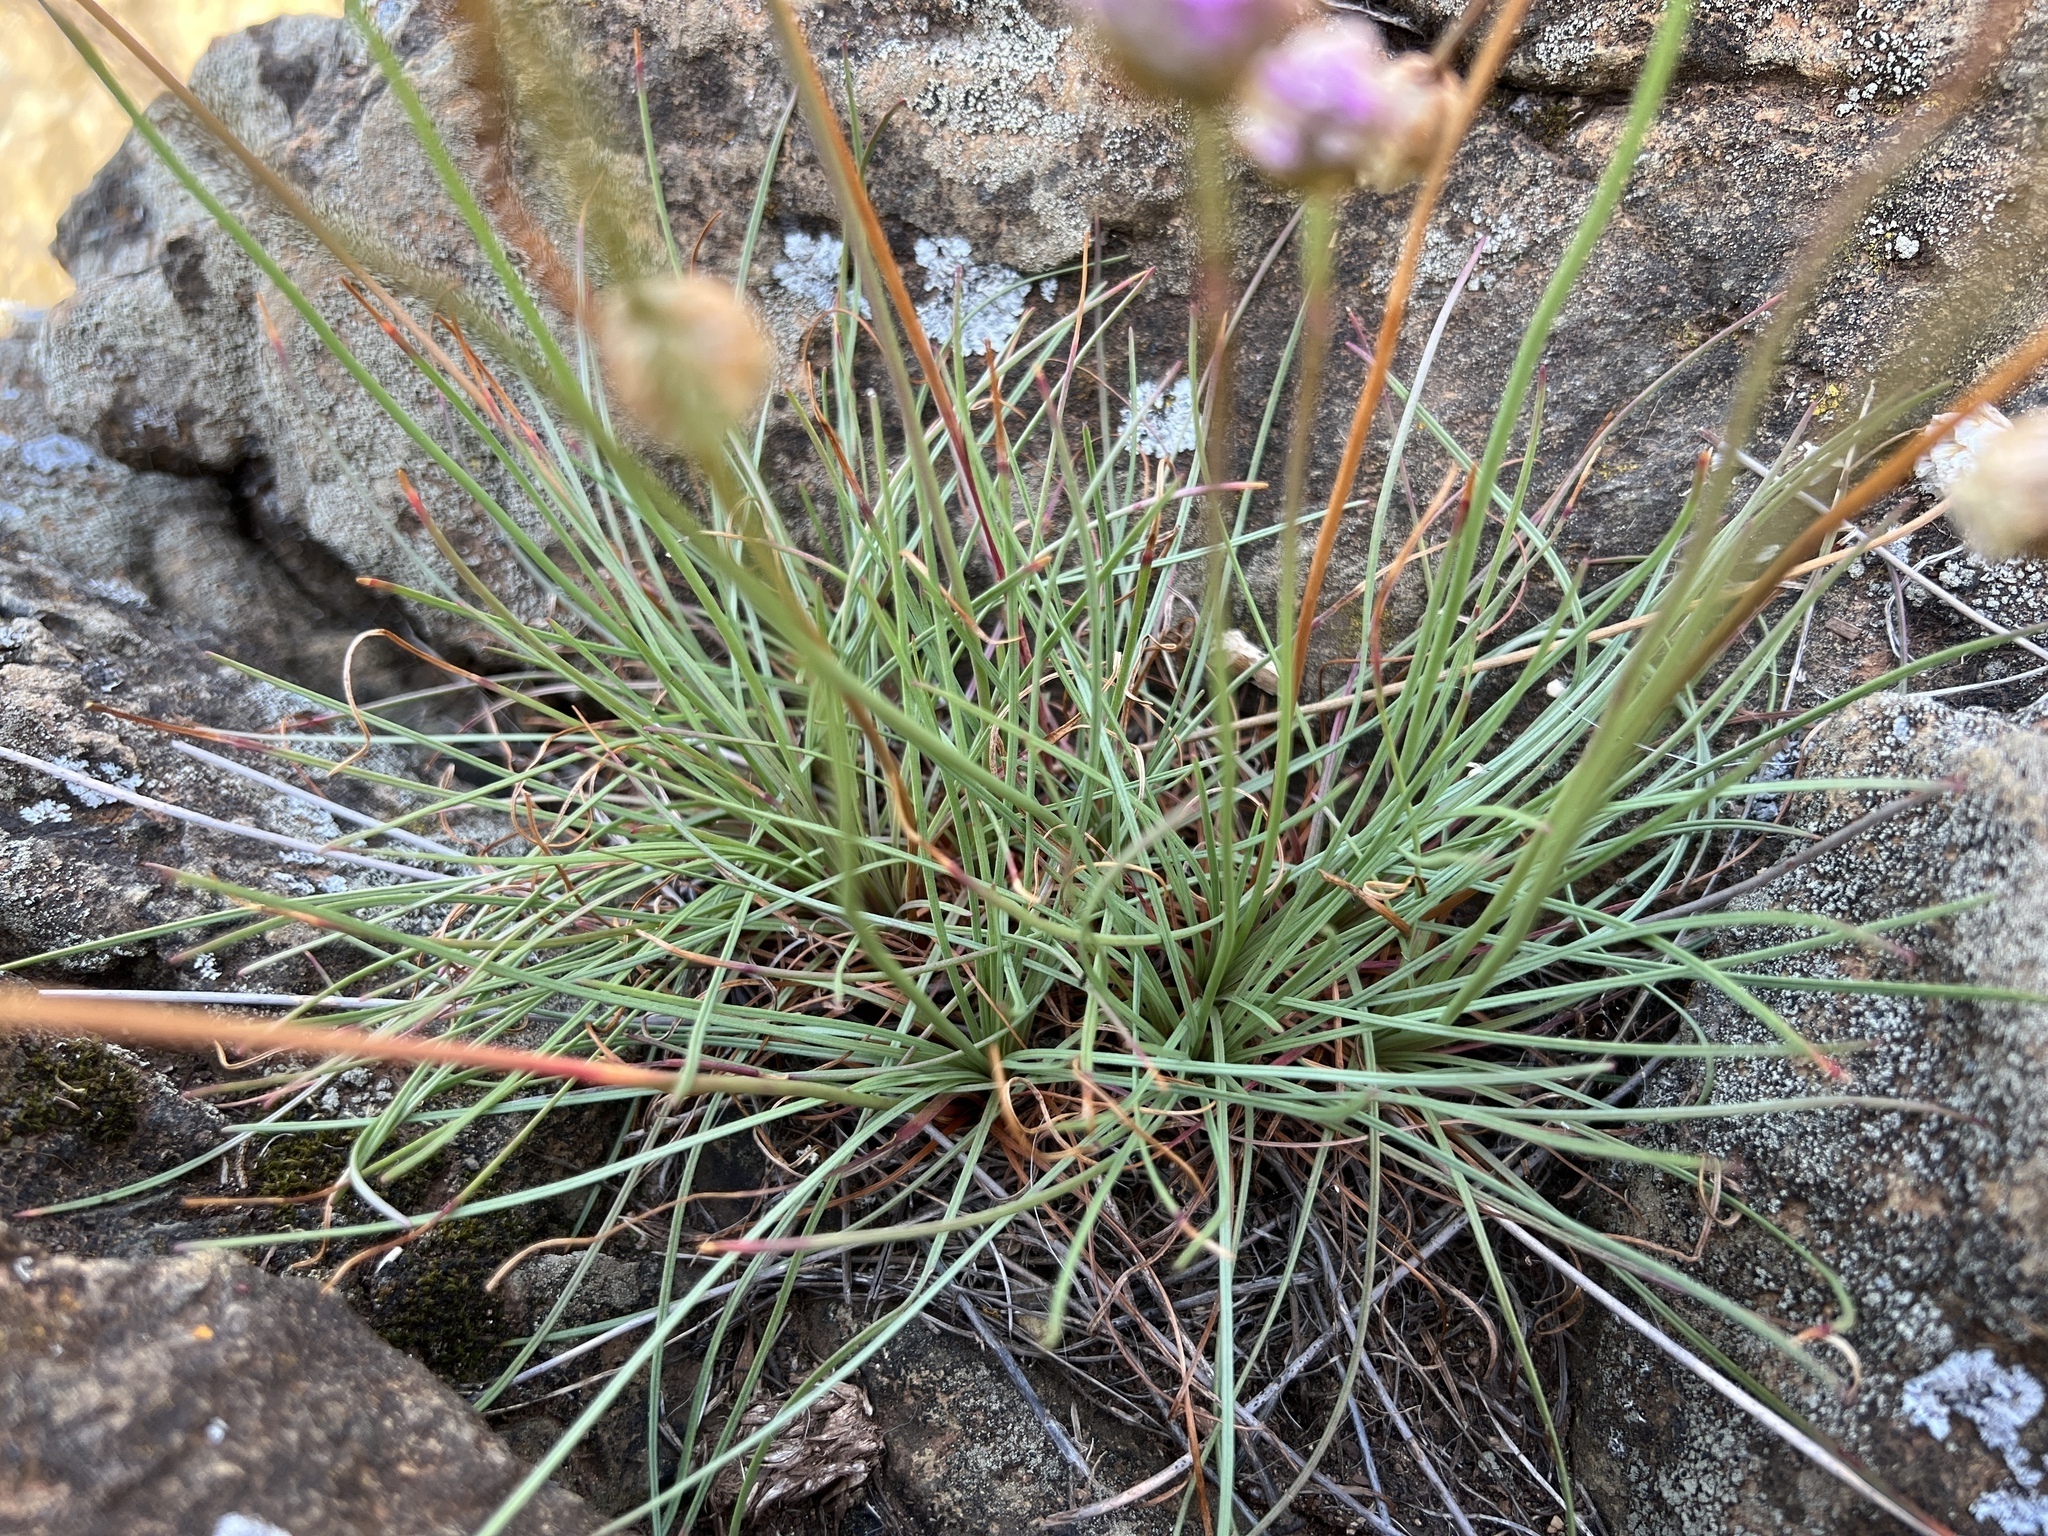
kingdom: Plantae
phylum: Tracheophyta
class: Magnoliopsida
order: Caryophyllales
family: Plumbaginaceae
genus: Armeria
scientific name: Armeria maritima
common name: Thrift
